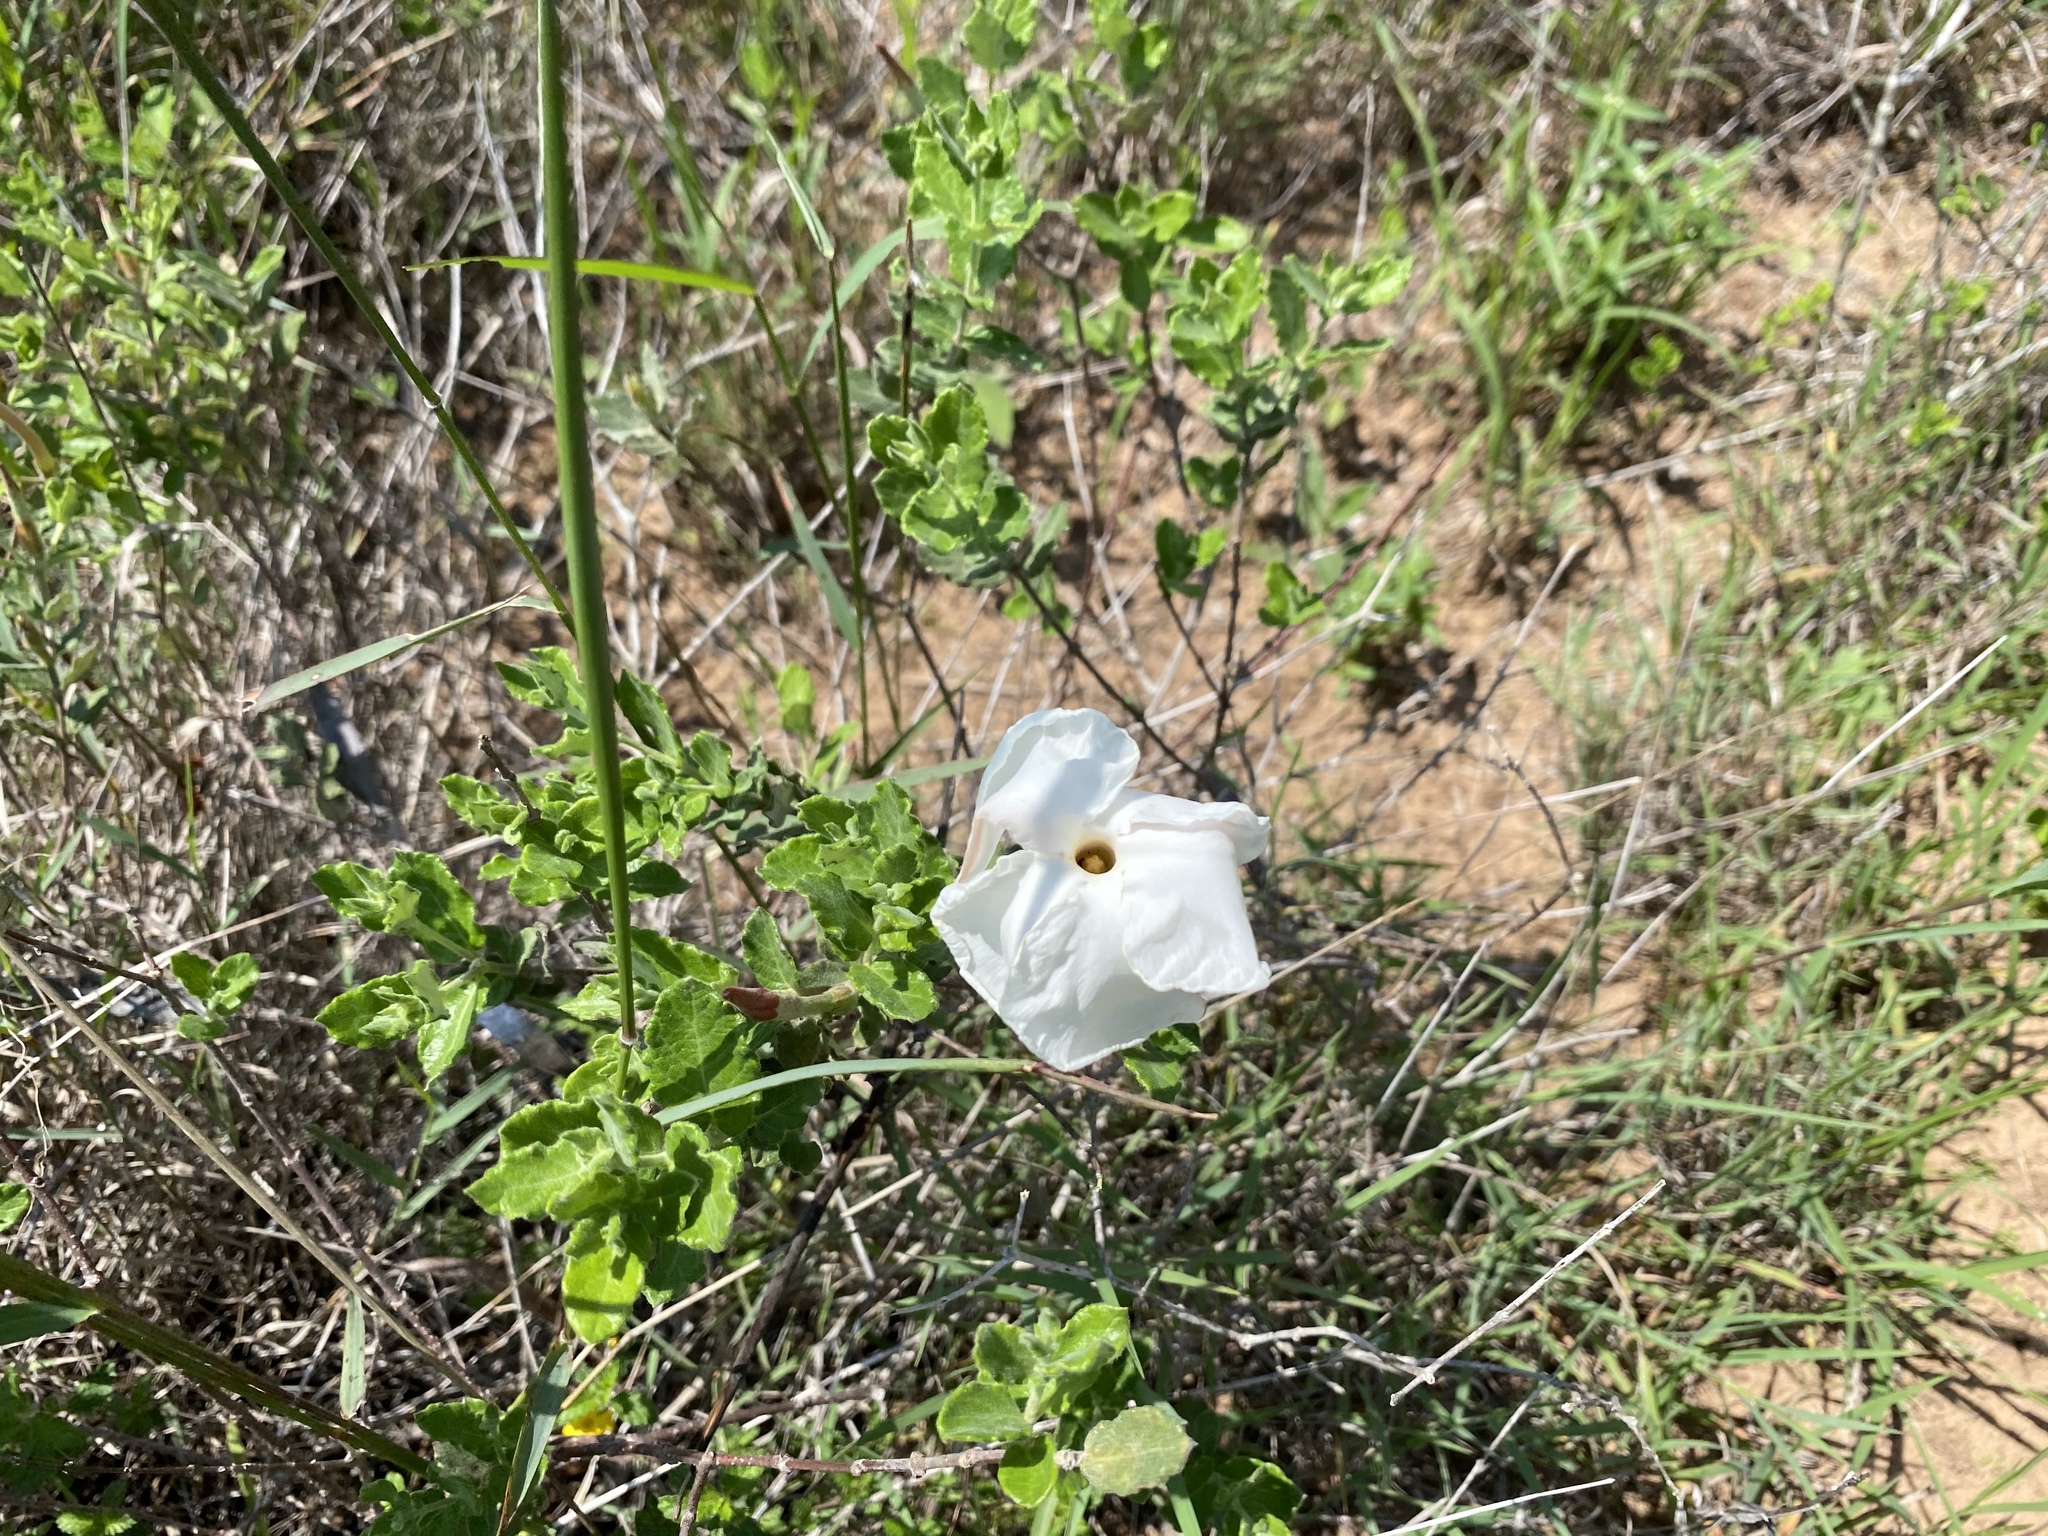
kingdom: Plantae
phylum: Tracheophyta
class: Magnoliopsida
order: Gentianales
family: Apocynaceae
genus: Mandevilla
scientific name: Mandevilla lanuginosa
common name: Plateau rocktrumpet
